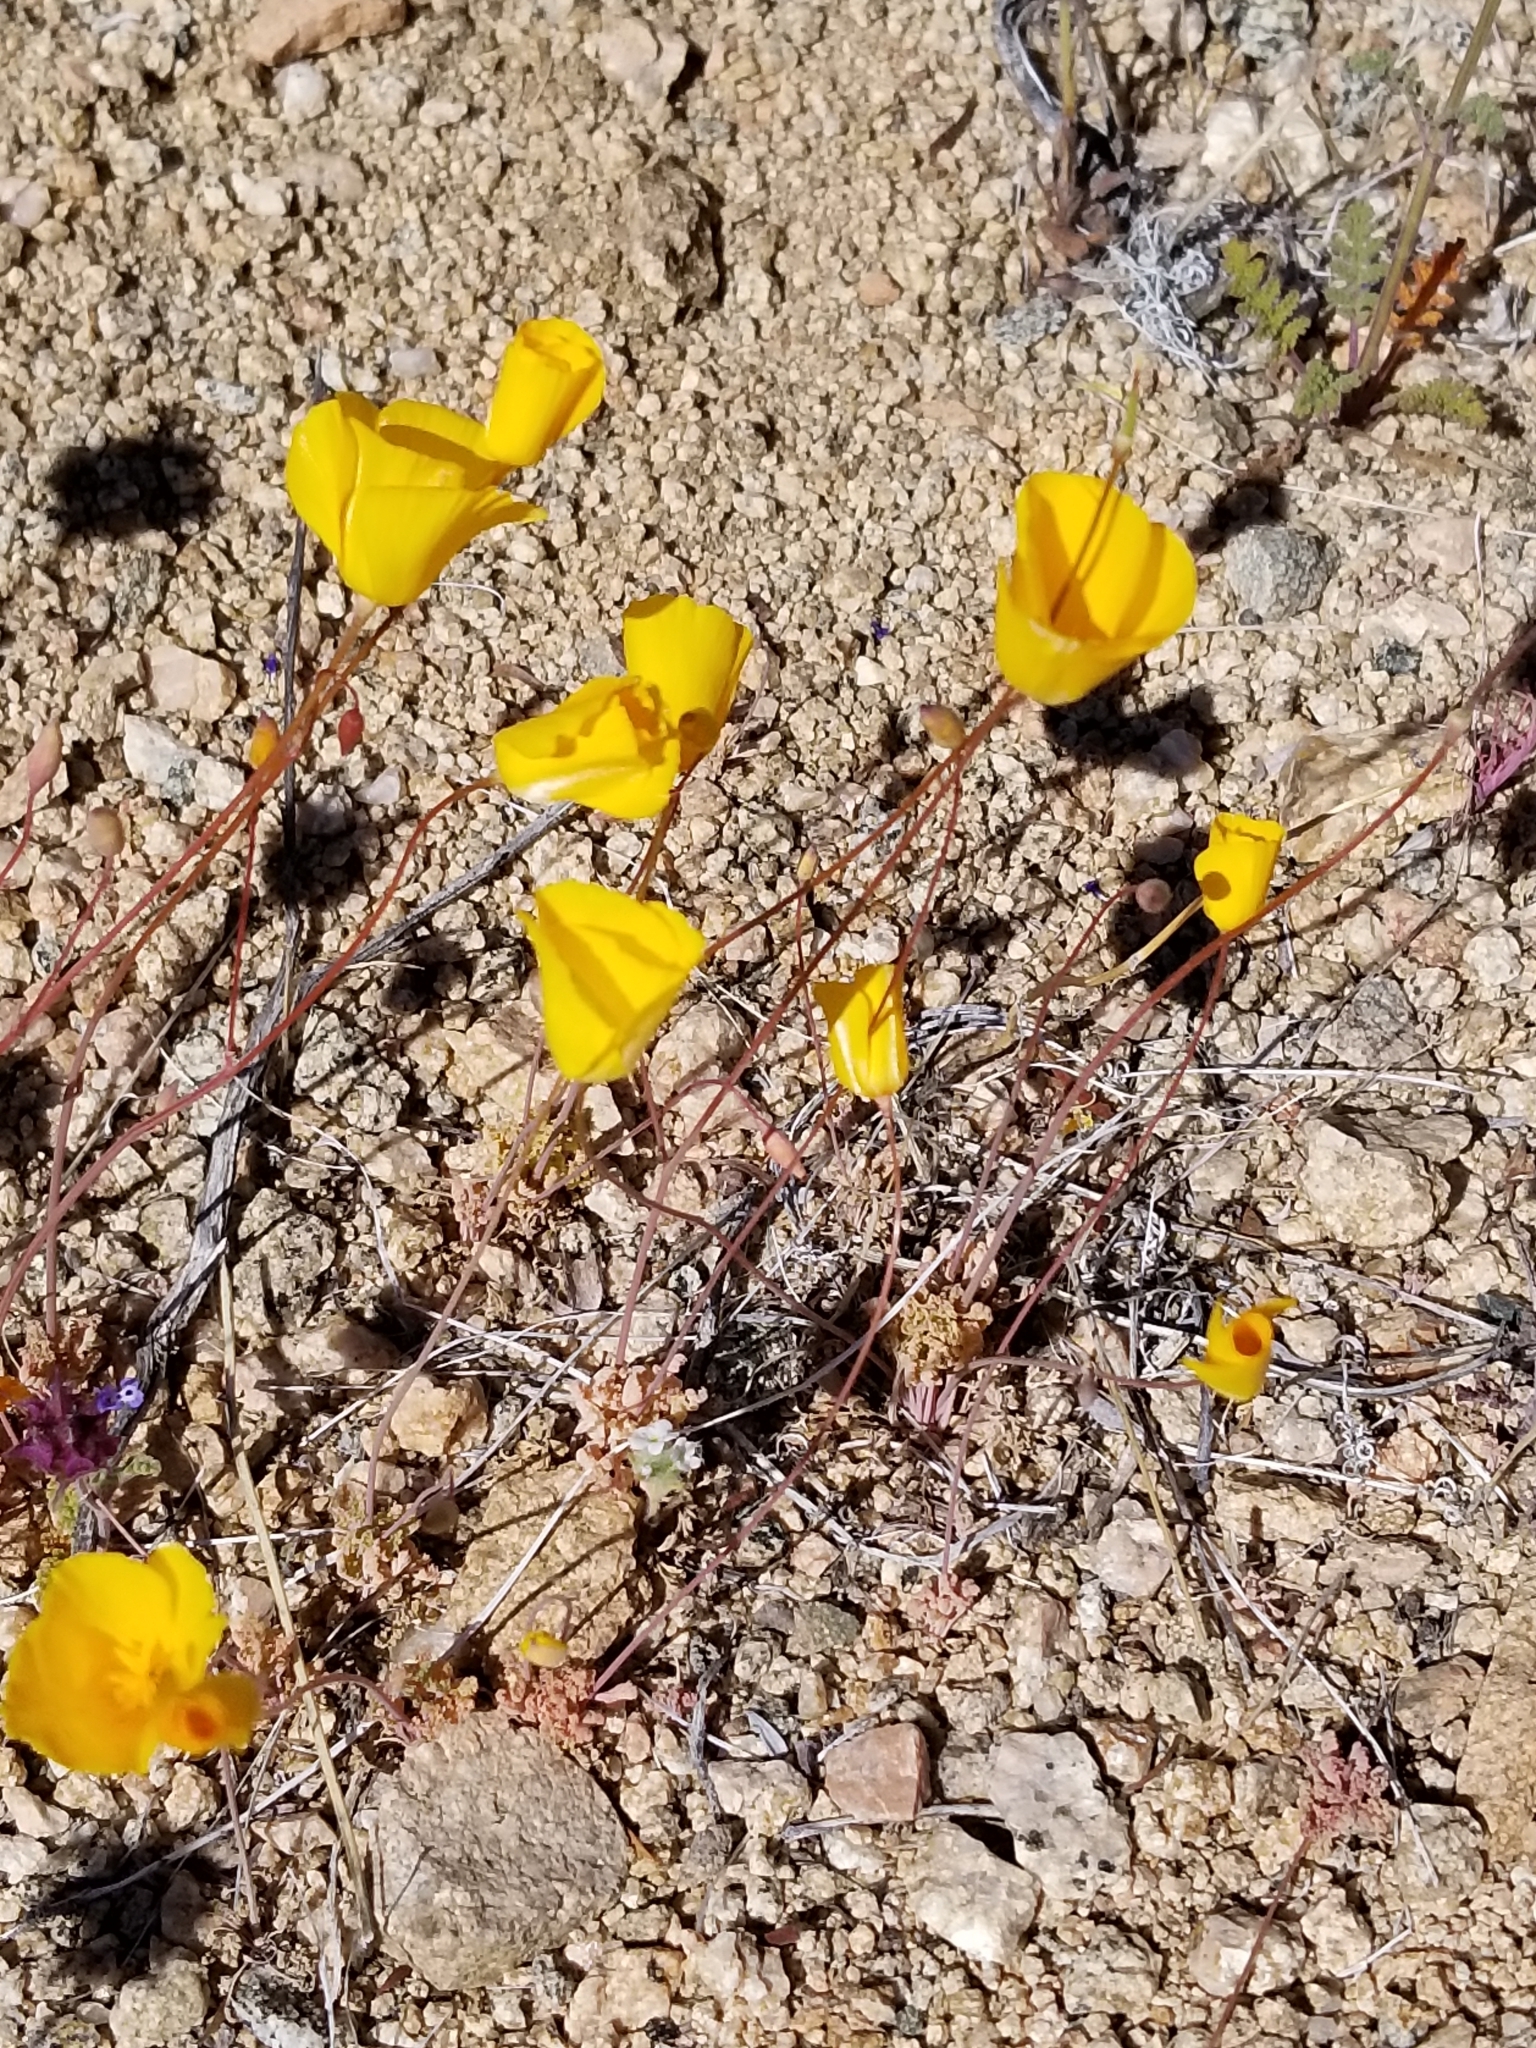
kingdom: Plantae
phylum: Tracheophyta
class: Magnoliopsida
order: Ranunculales
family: Papaveraceae
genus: Eschscholzia
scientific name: Eschscholzia parishii
